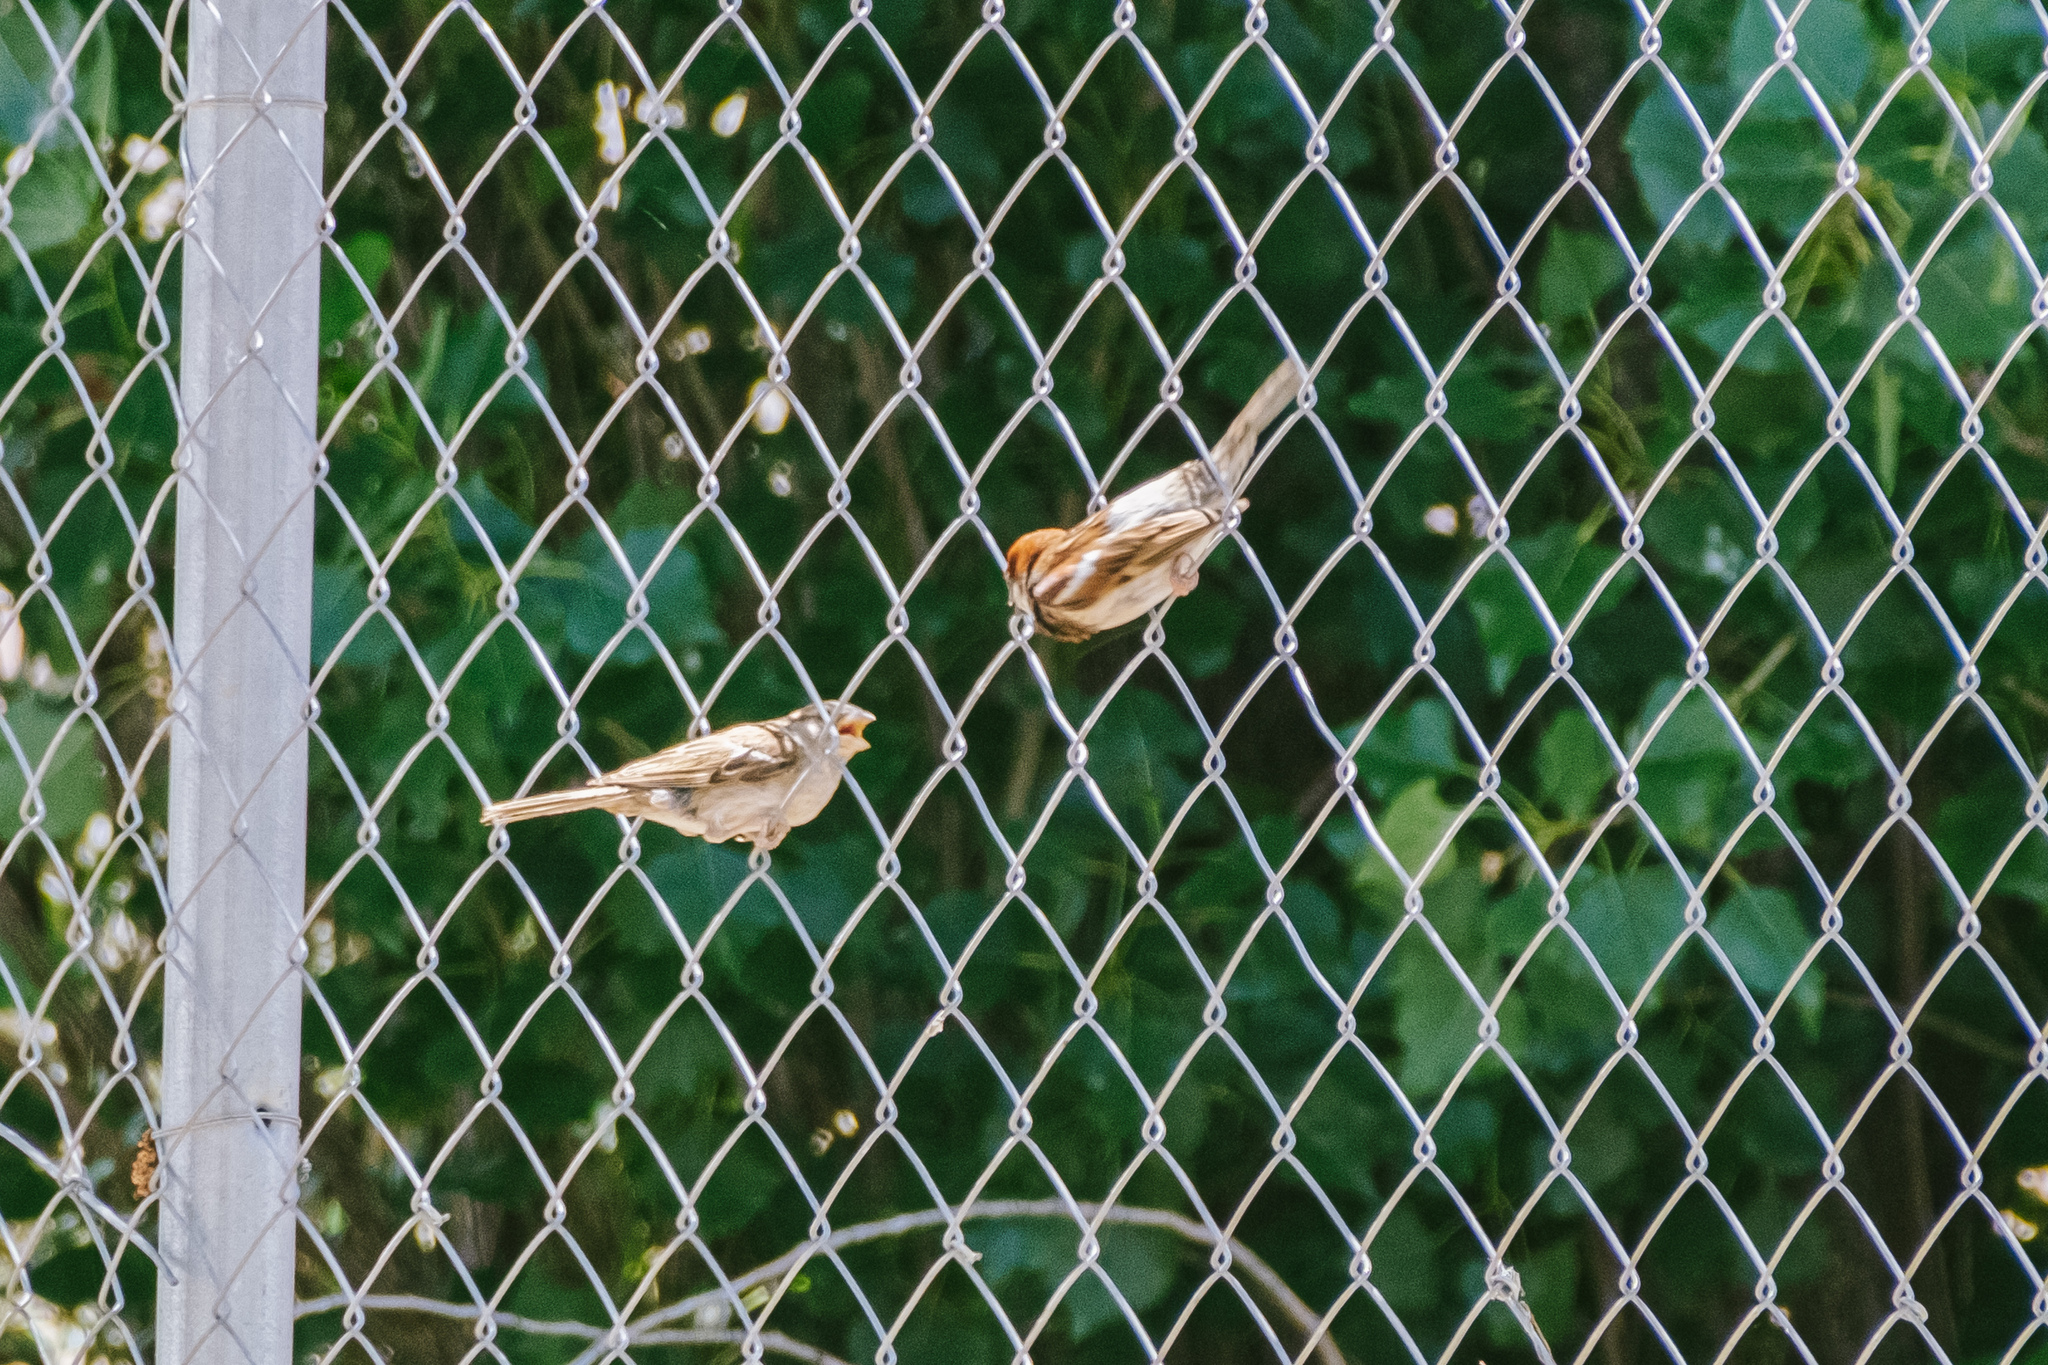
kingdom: Animalia
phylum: Chordata
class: Aves
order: Passeriformes
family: Passeridae
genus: Passer
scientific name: Passer domesticus
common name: House sparrow
